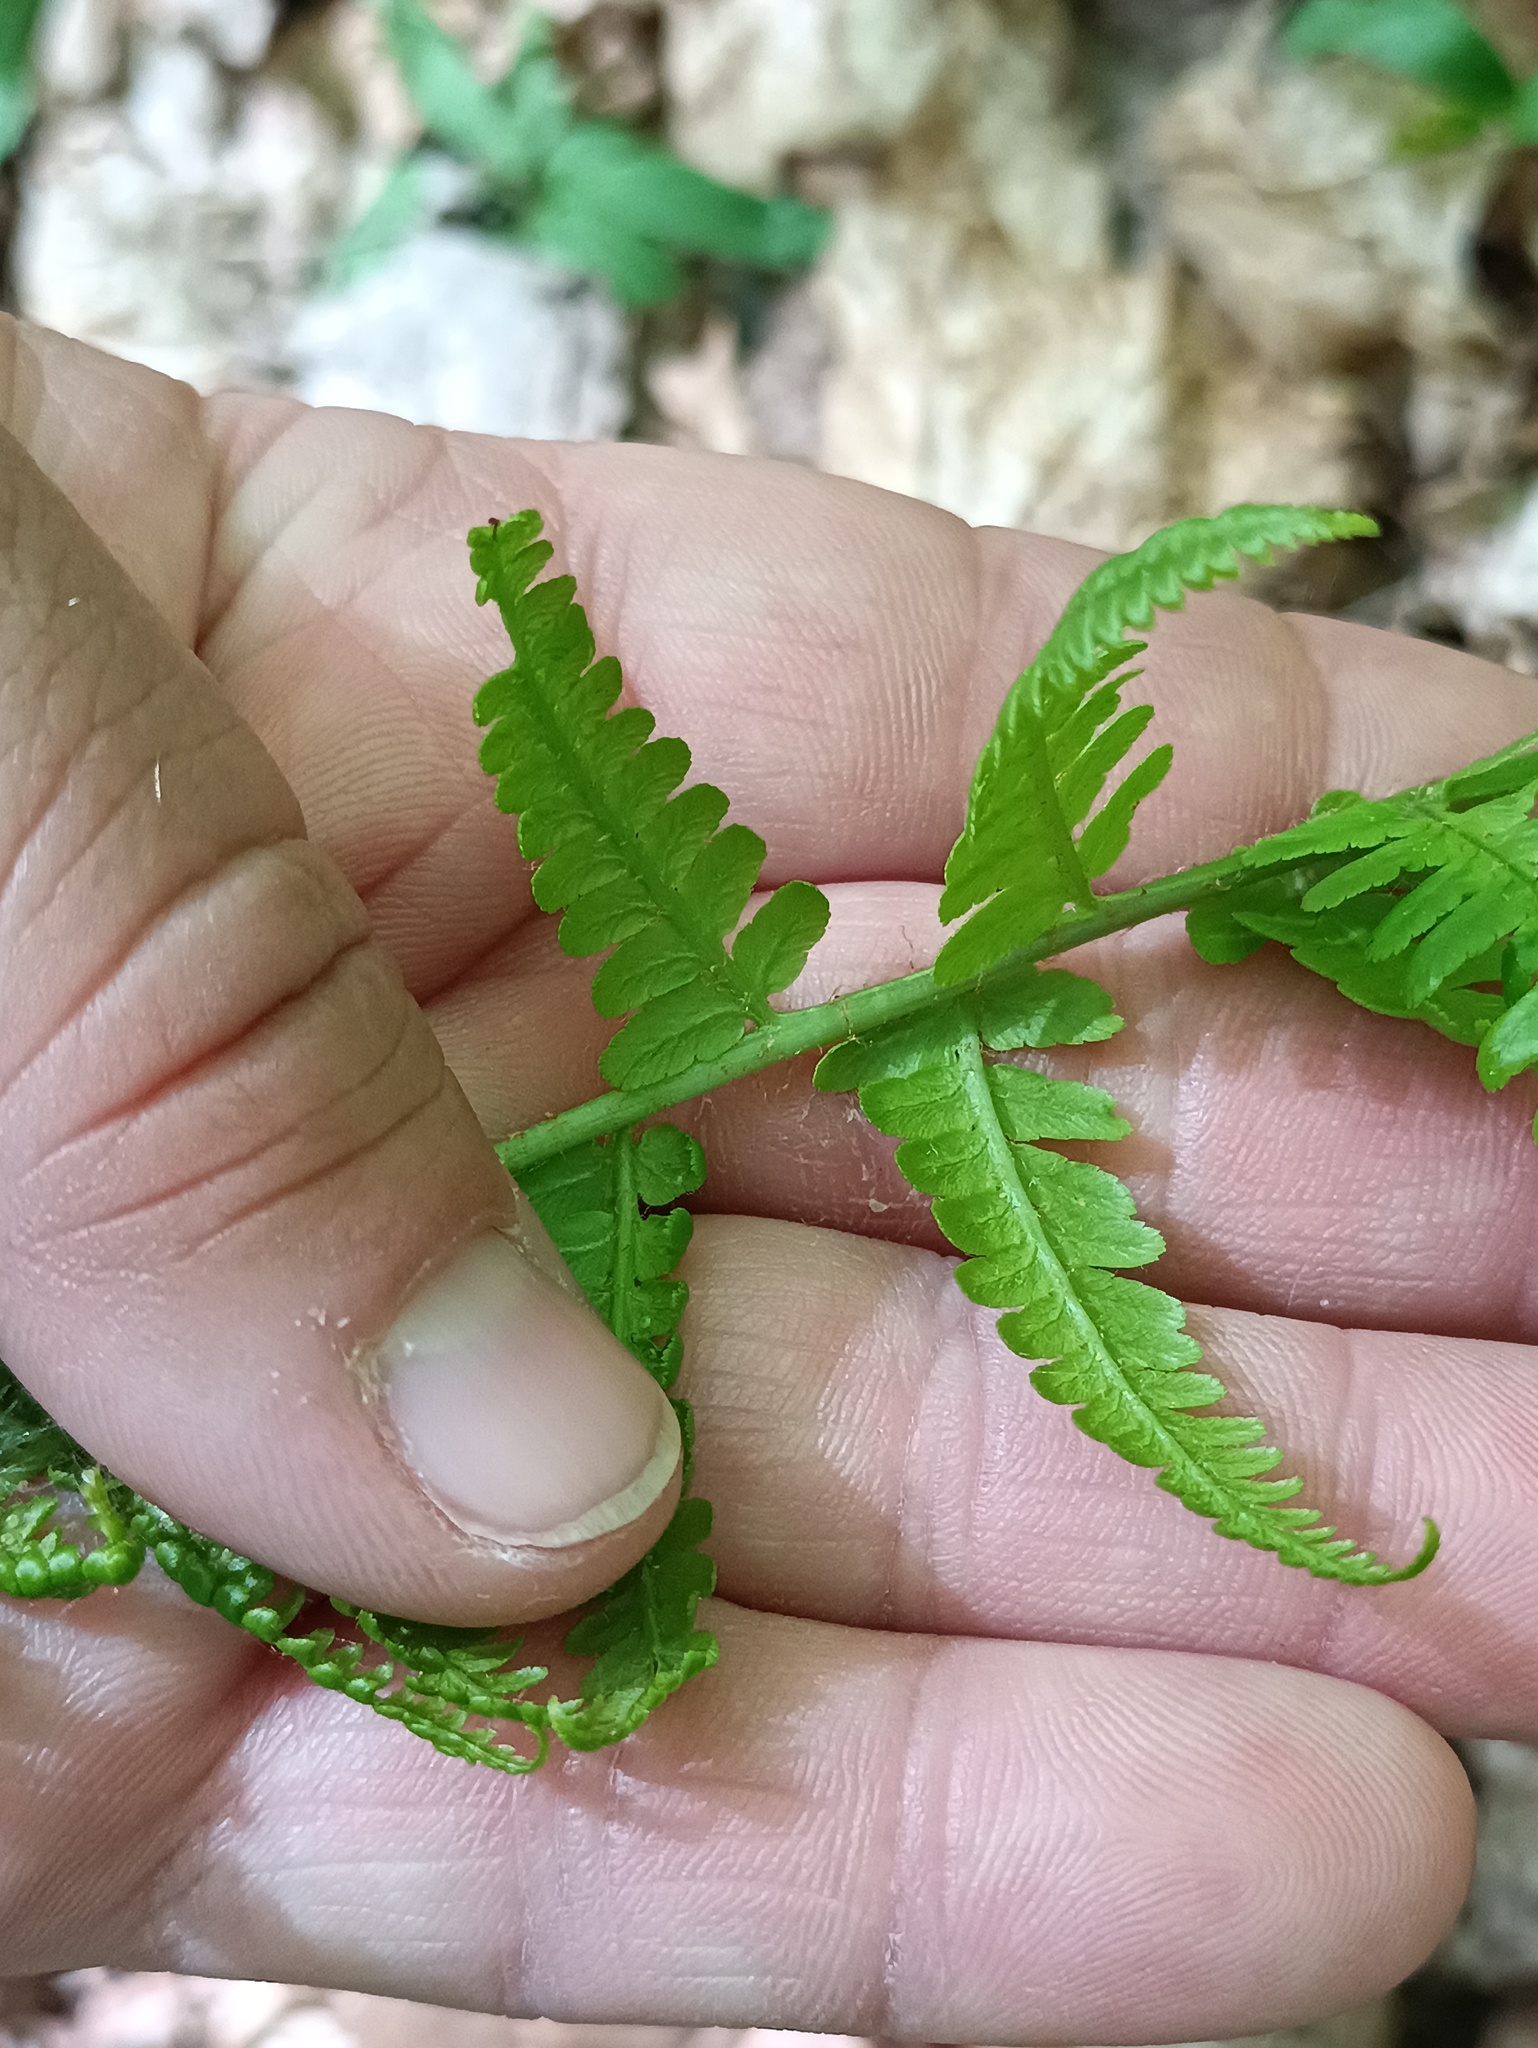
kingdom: Plantae
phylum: Tracheophyta
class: Polypodiopsida
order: Polypodiales
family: Dryopteridaceae
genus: Dryopteris
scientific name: Dryopteris filix-mas
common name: Male fern
